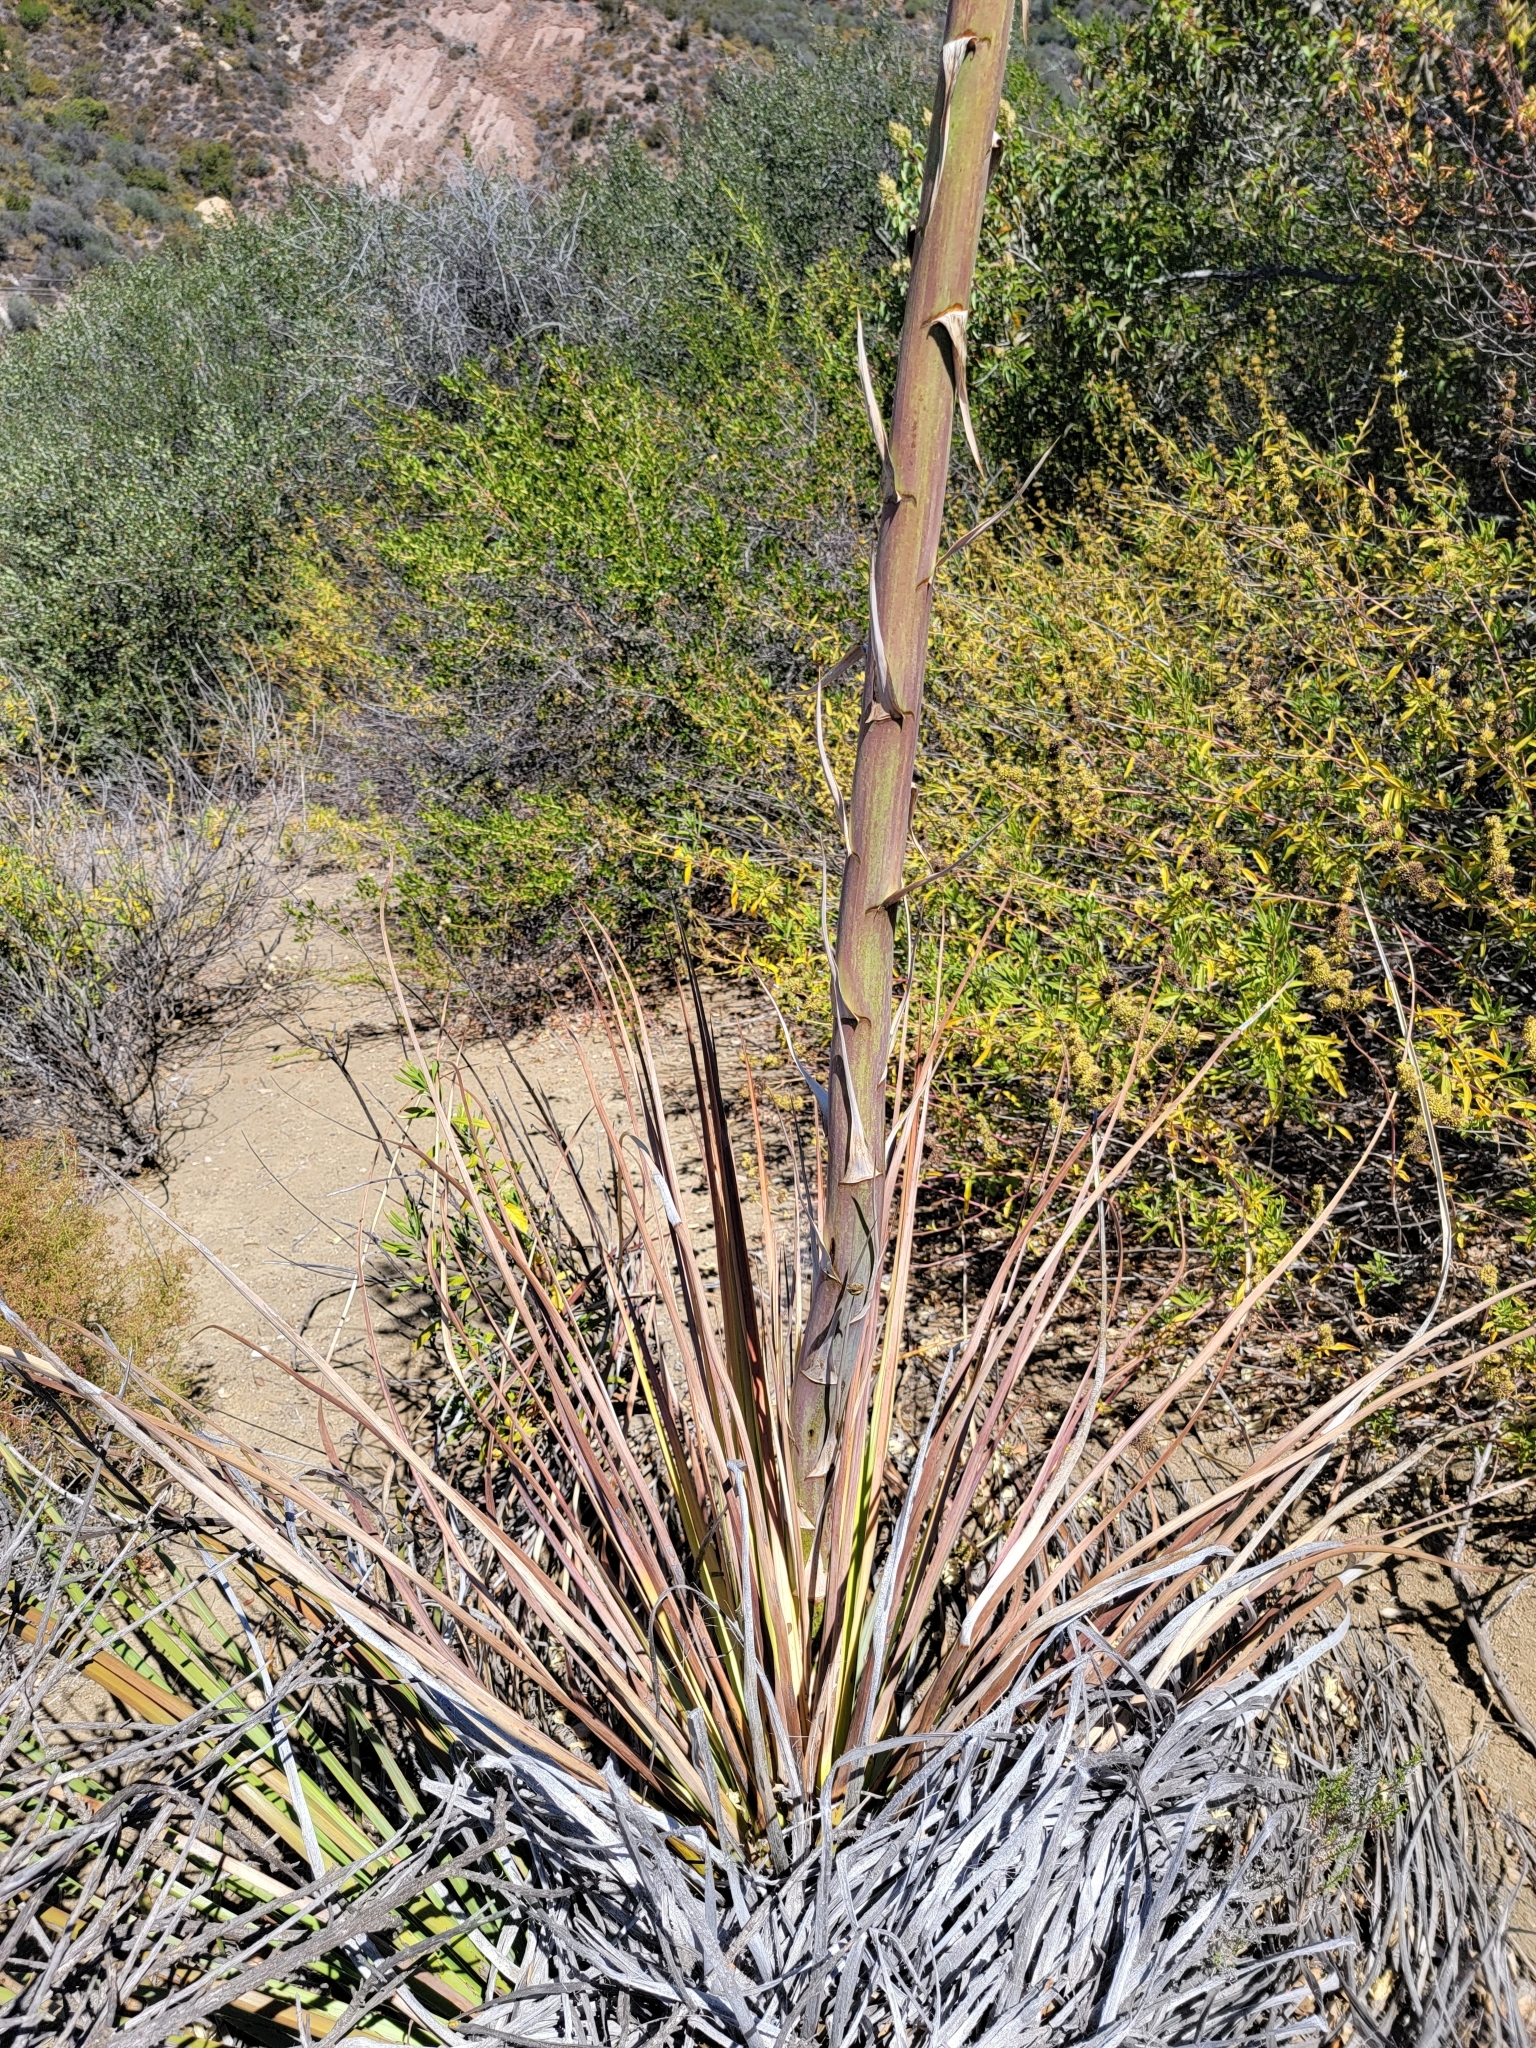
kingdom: Plantae
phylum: Tracheophyta
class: Liliopsida
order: Asparagales
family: Asparagaceae
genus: Hesperoyucca
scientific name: Hesperoyucca whipplei
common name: Our lord's-candle
